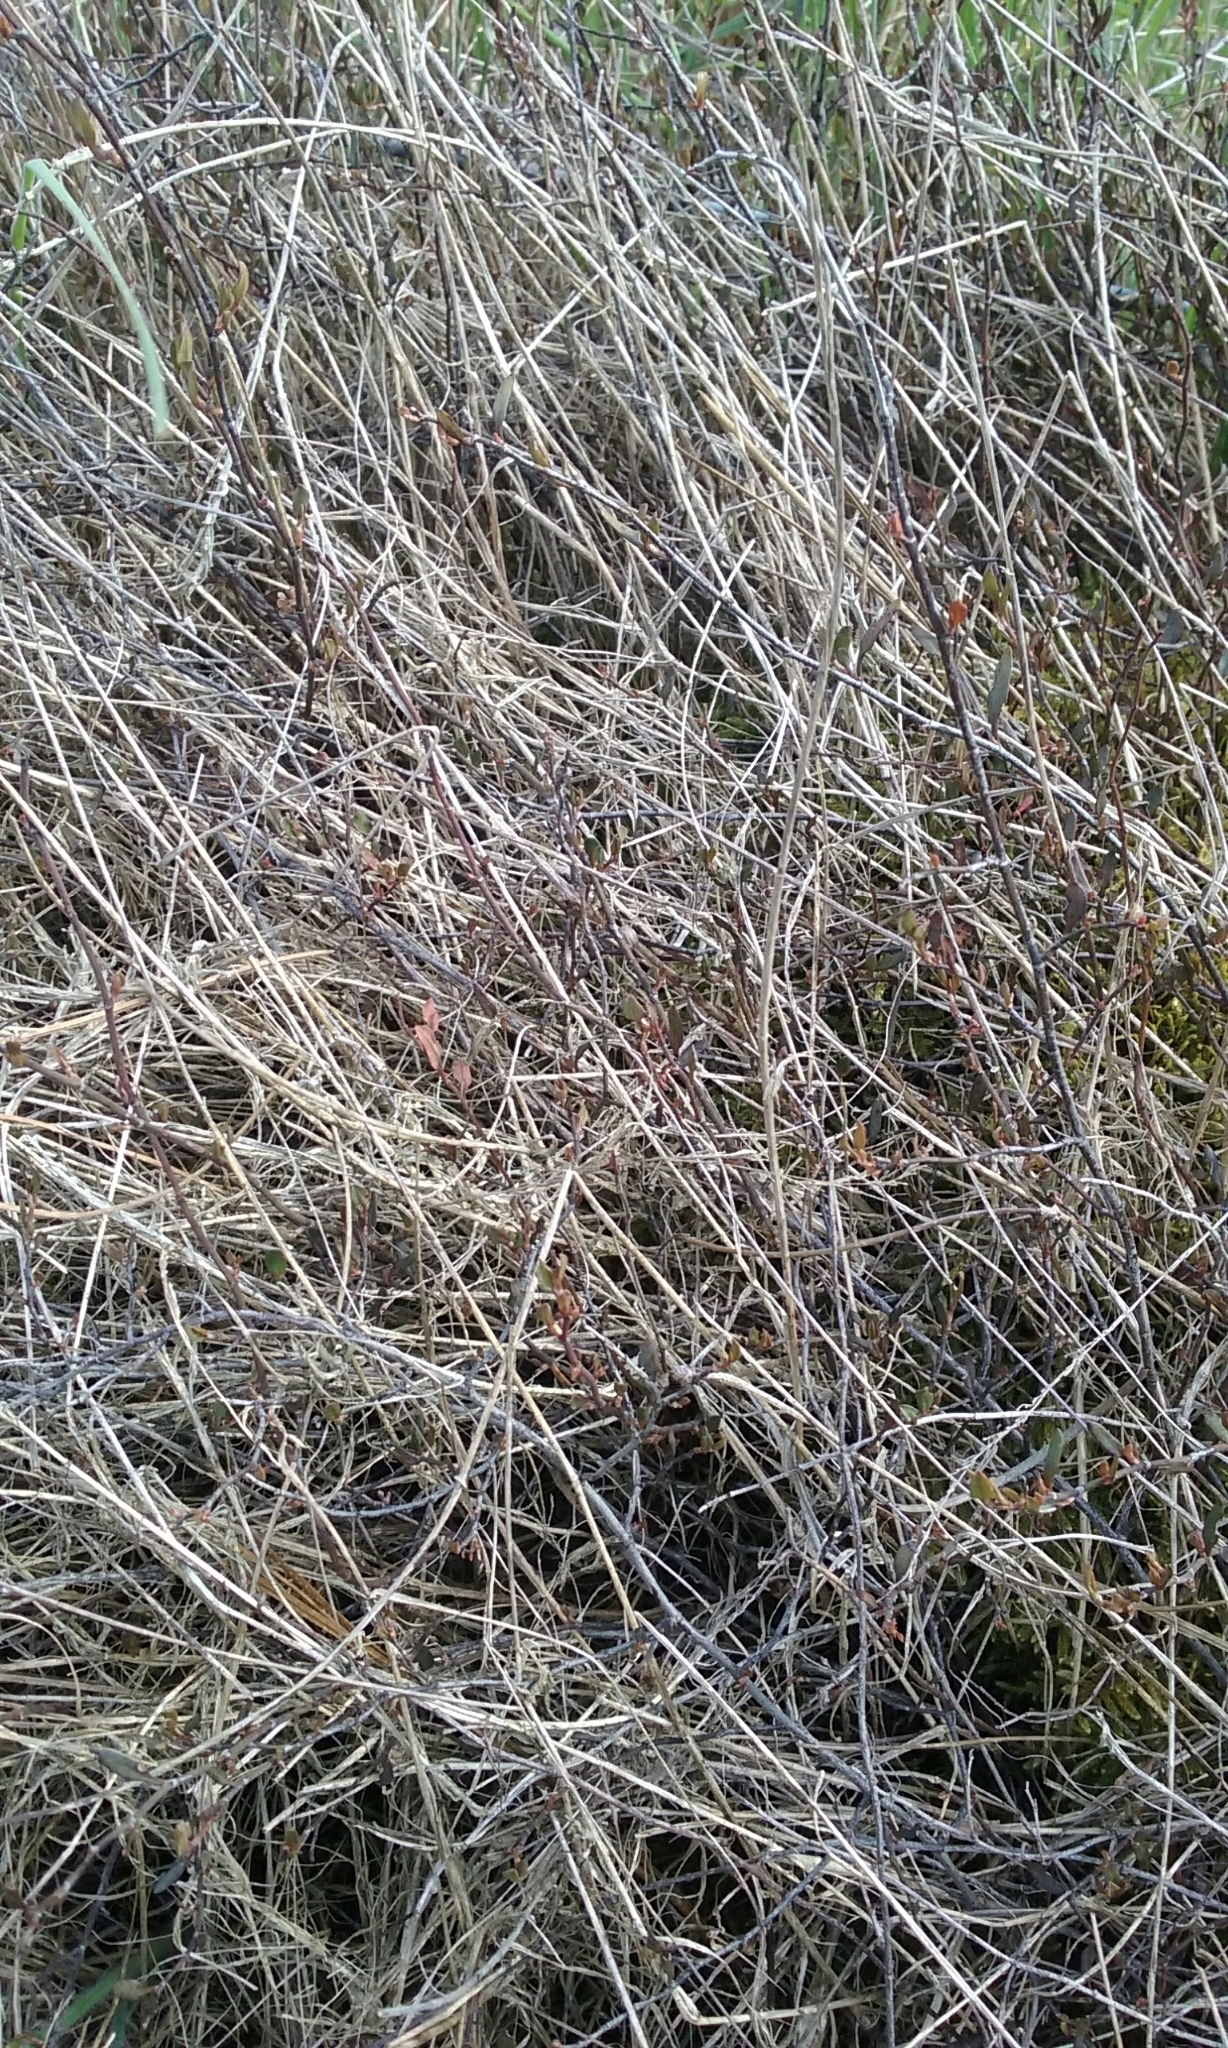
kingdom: Plantae
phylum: Tracheophyta
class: Magnoliopsida
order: Caryophyllales
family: Polygonaceae
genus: Muehlenbeckia
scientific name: Muehlenbeckia
